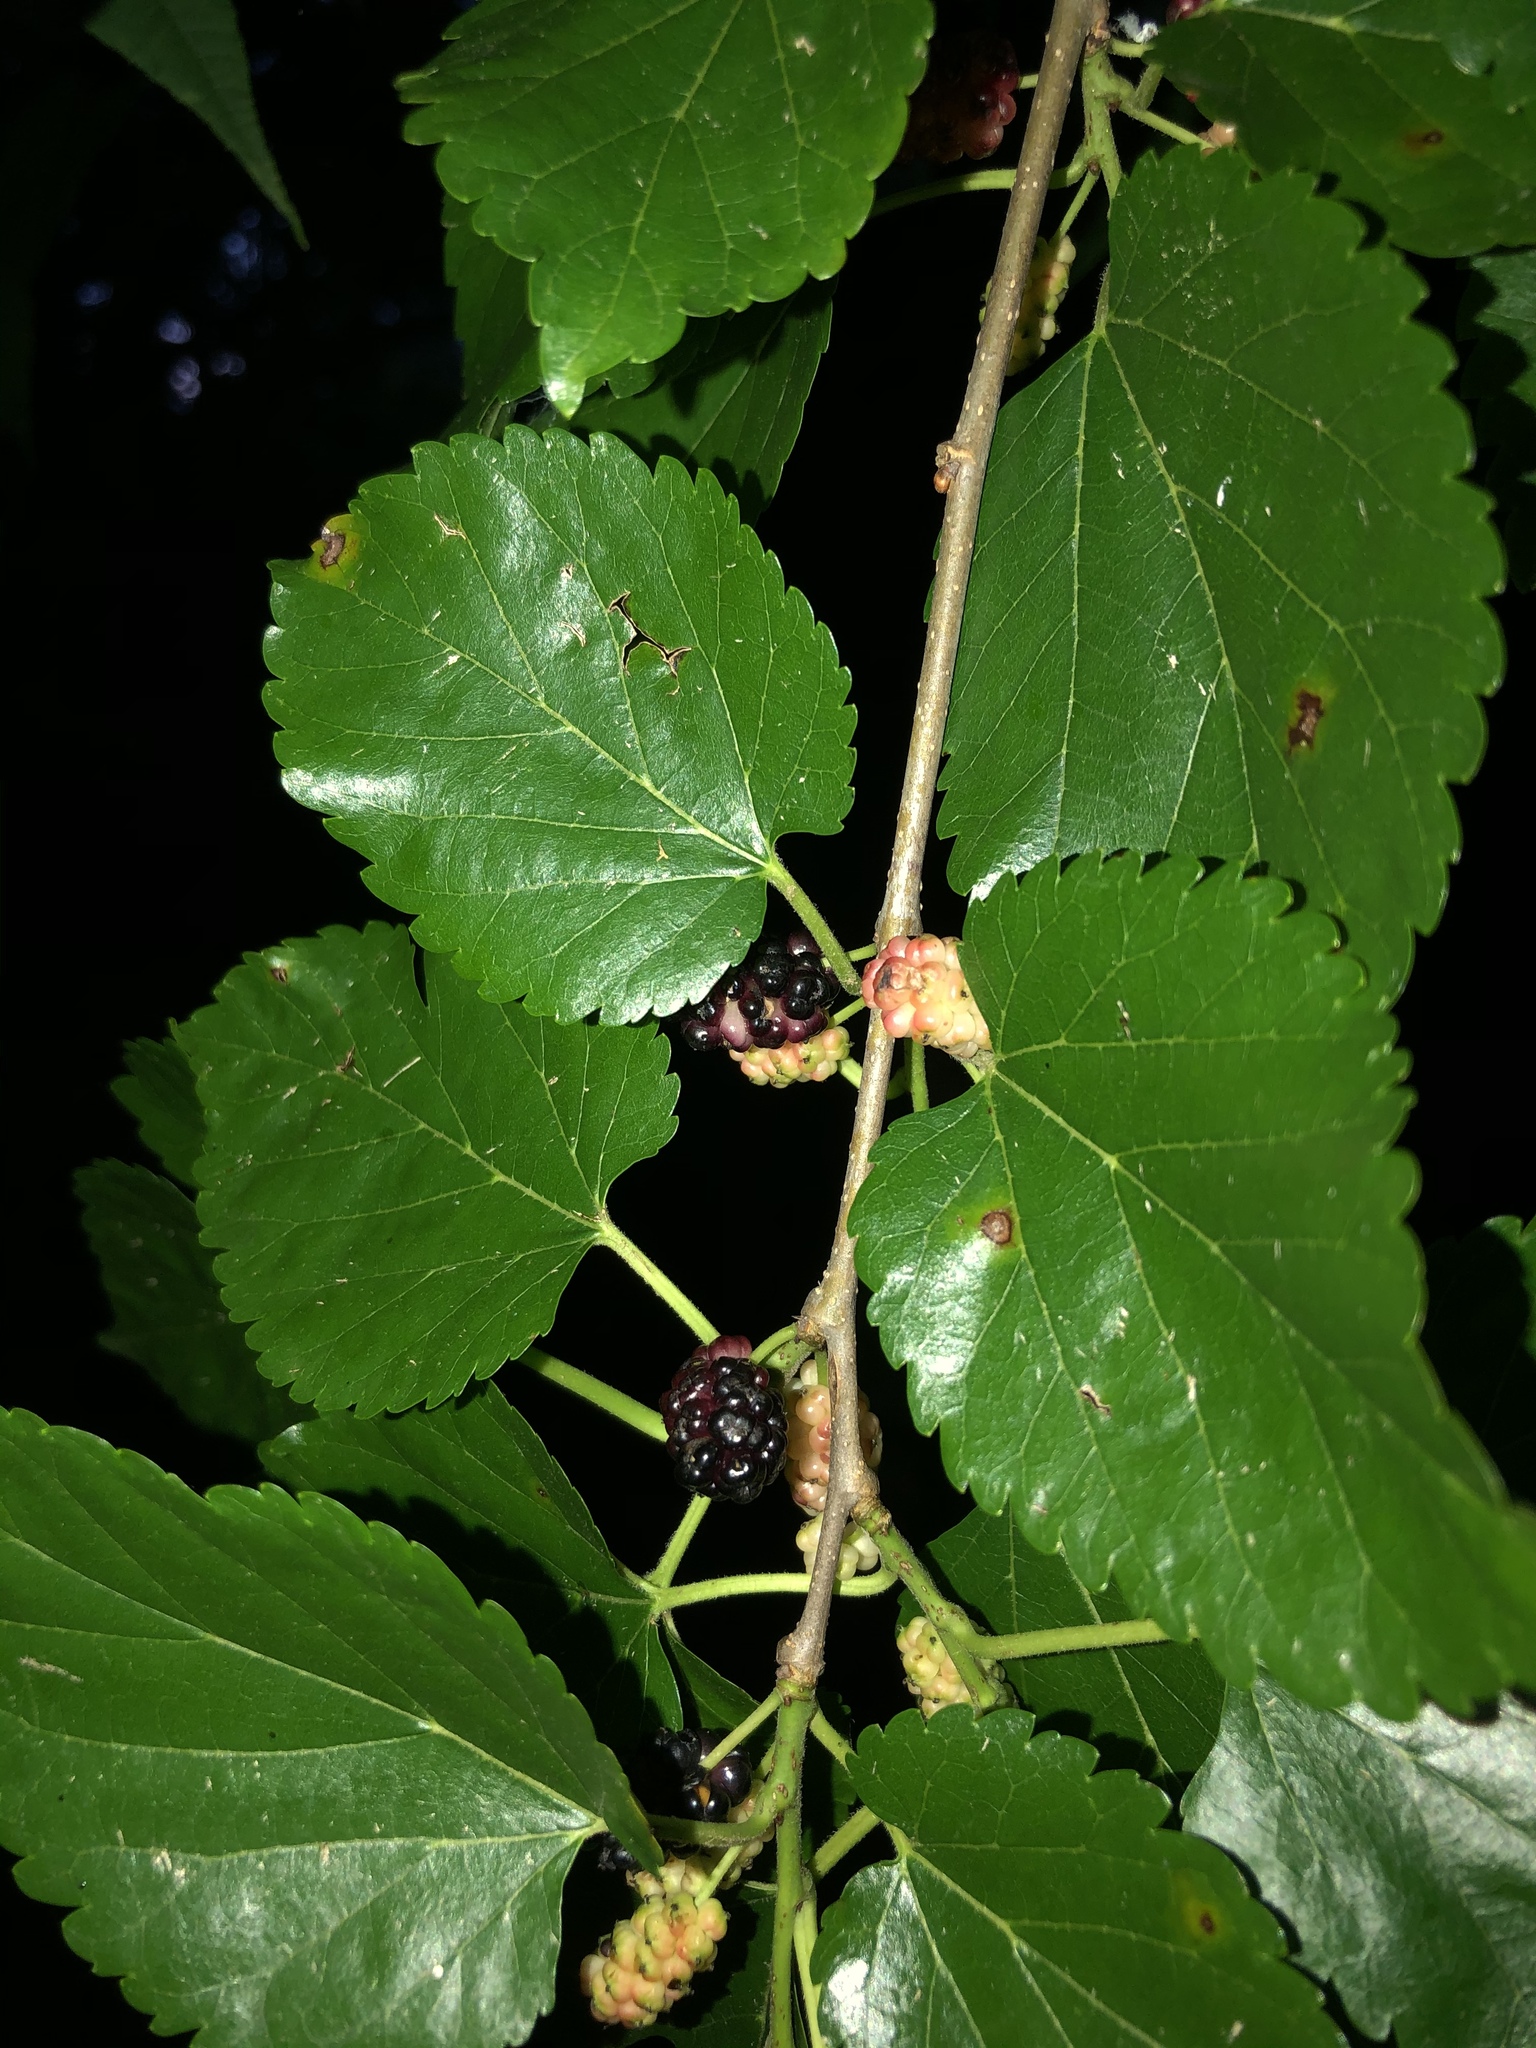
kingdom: Plantae
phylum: Tracheophyta
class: Magnoliopsida
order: Rosales
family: Moraceae
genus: Morus
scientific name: Morus alba
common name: White mulberry
